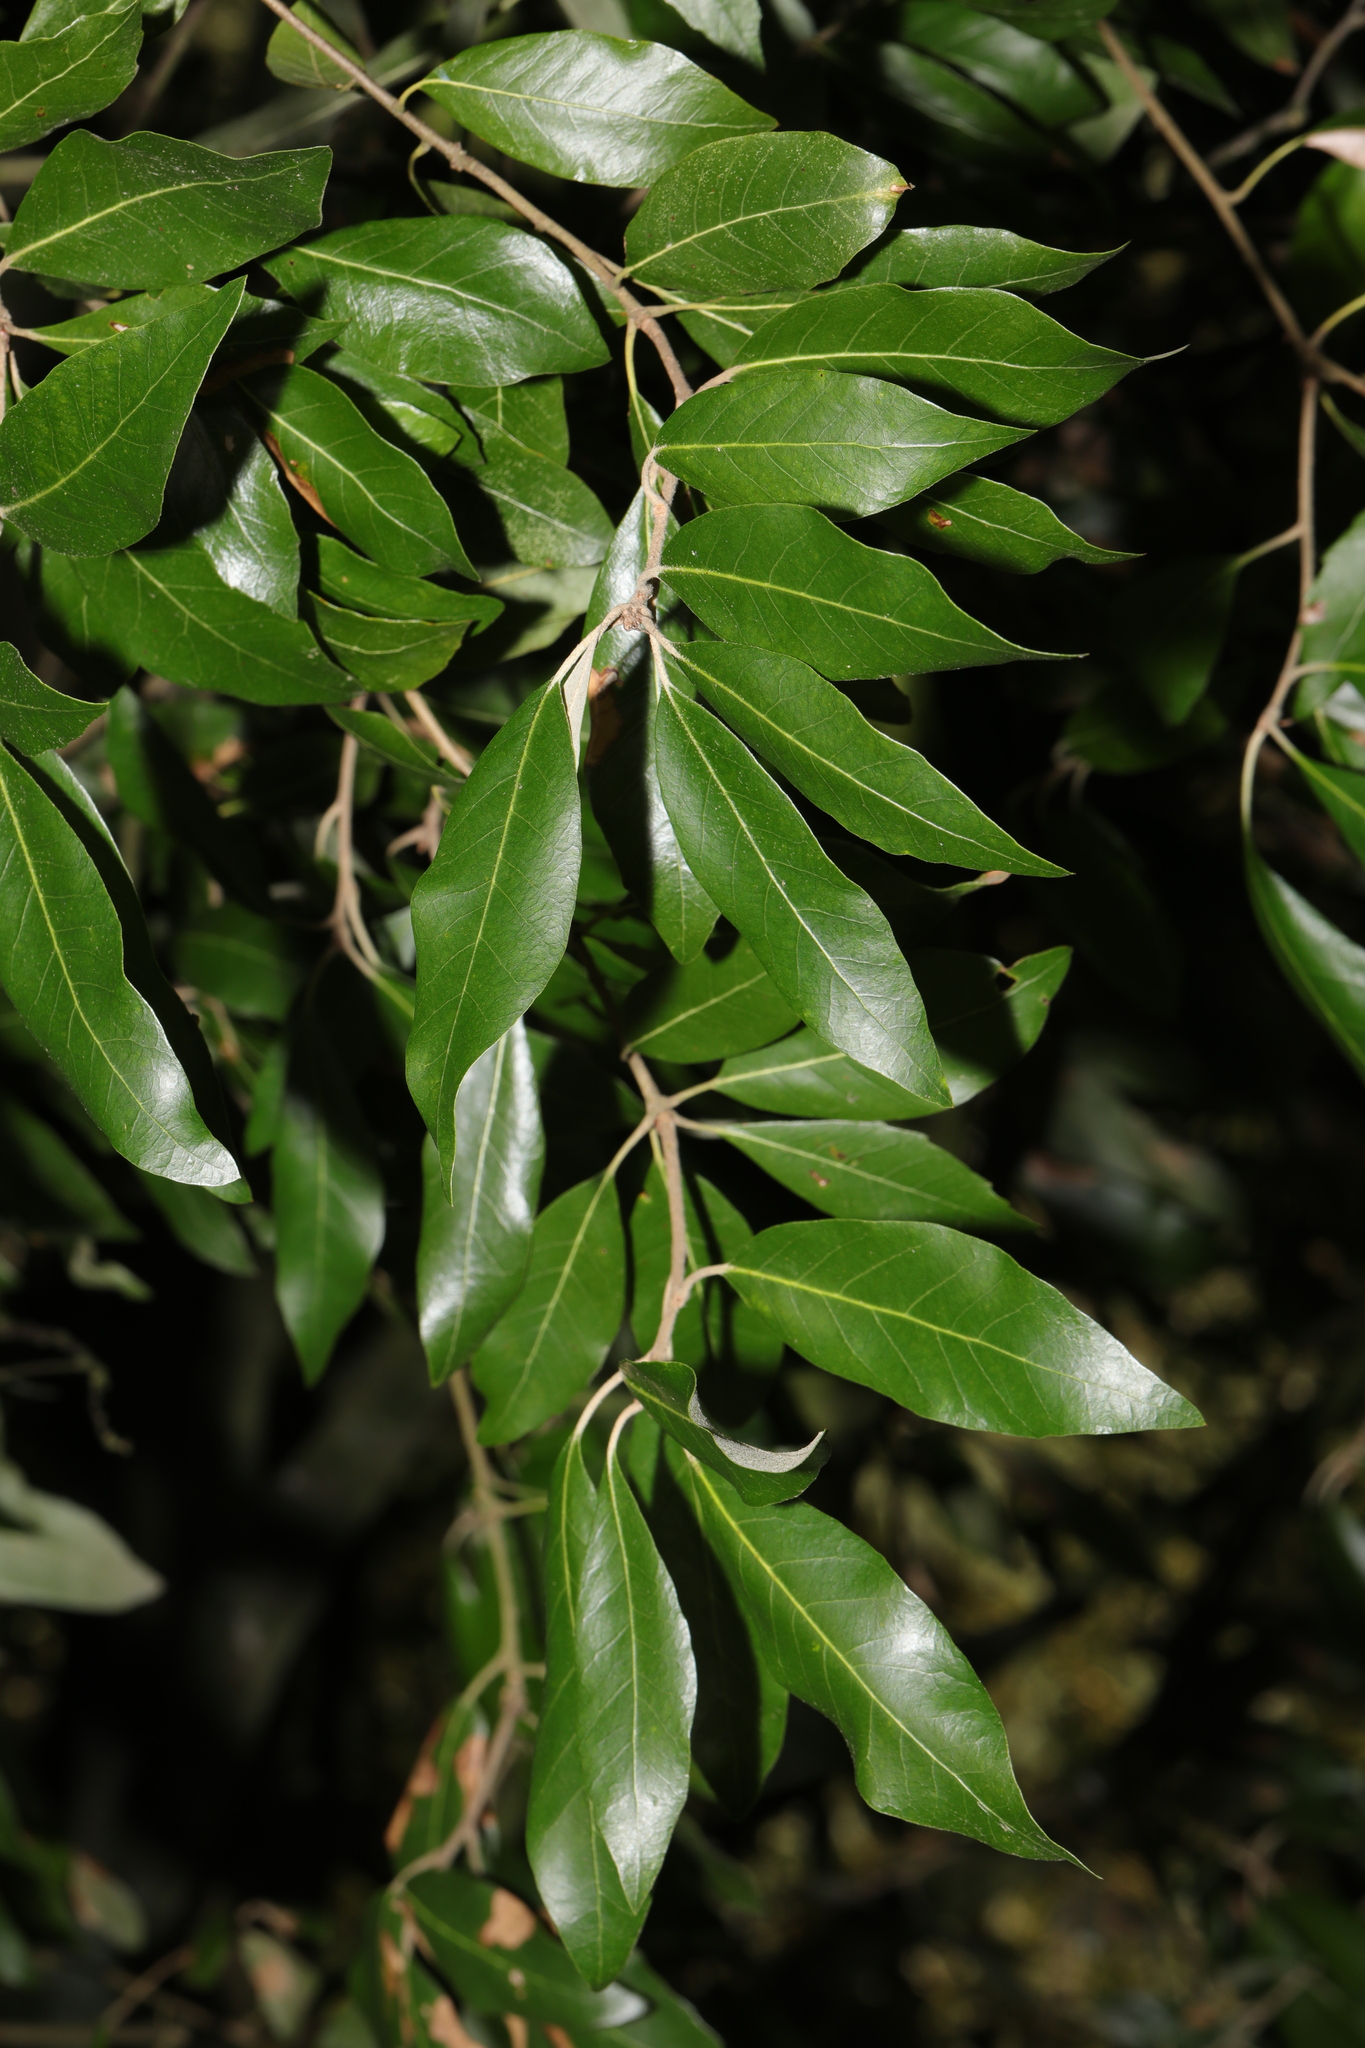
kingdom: Plantae
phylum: Tracheophyta
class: Magnoliopsida
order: Fagales
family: Fagaceae
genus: Quercus
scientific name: Quercus ilex
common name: Evergreen oak
